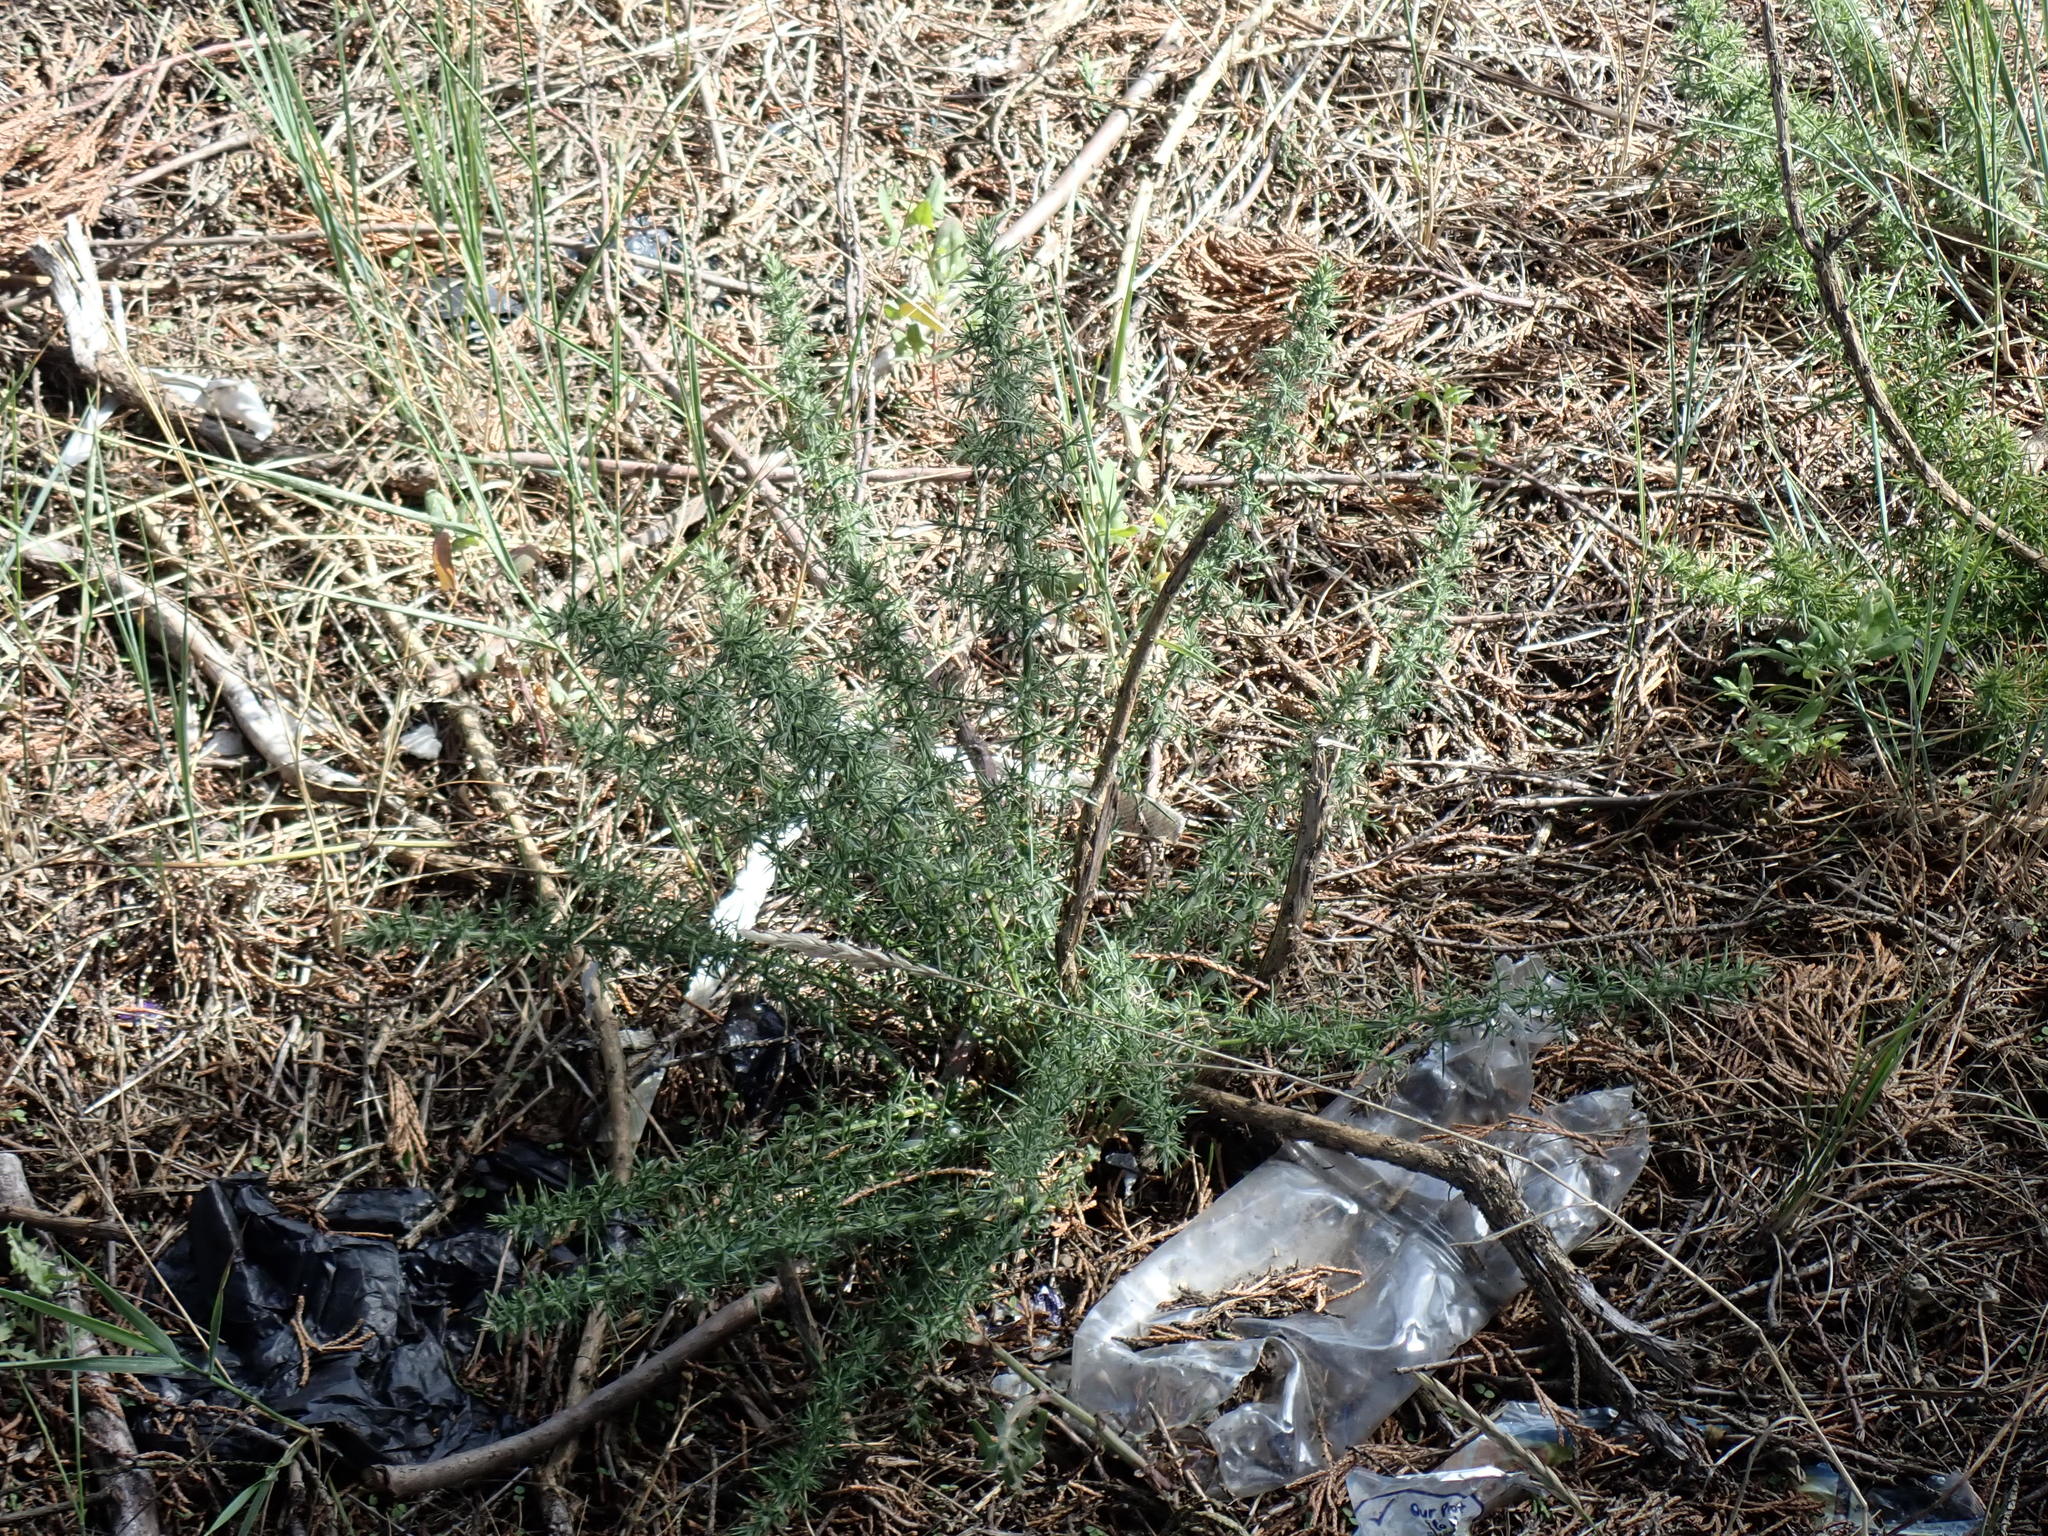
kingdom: Plantae
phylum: Tracheophyta
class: Magnoliopsida
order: Fabales
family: Fabaceae
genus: Ulex
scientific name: Ulex europaeus
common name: Common gorse
